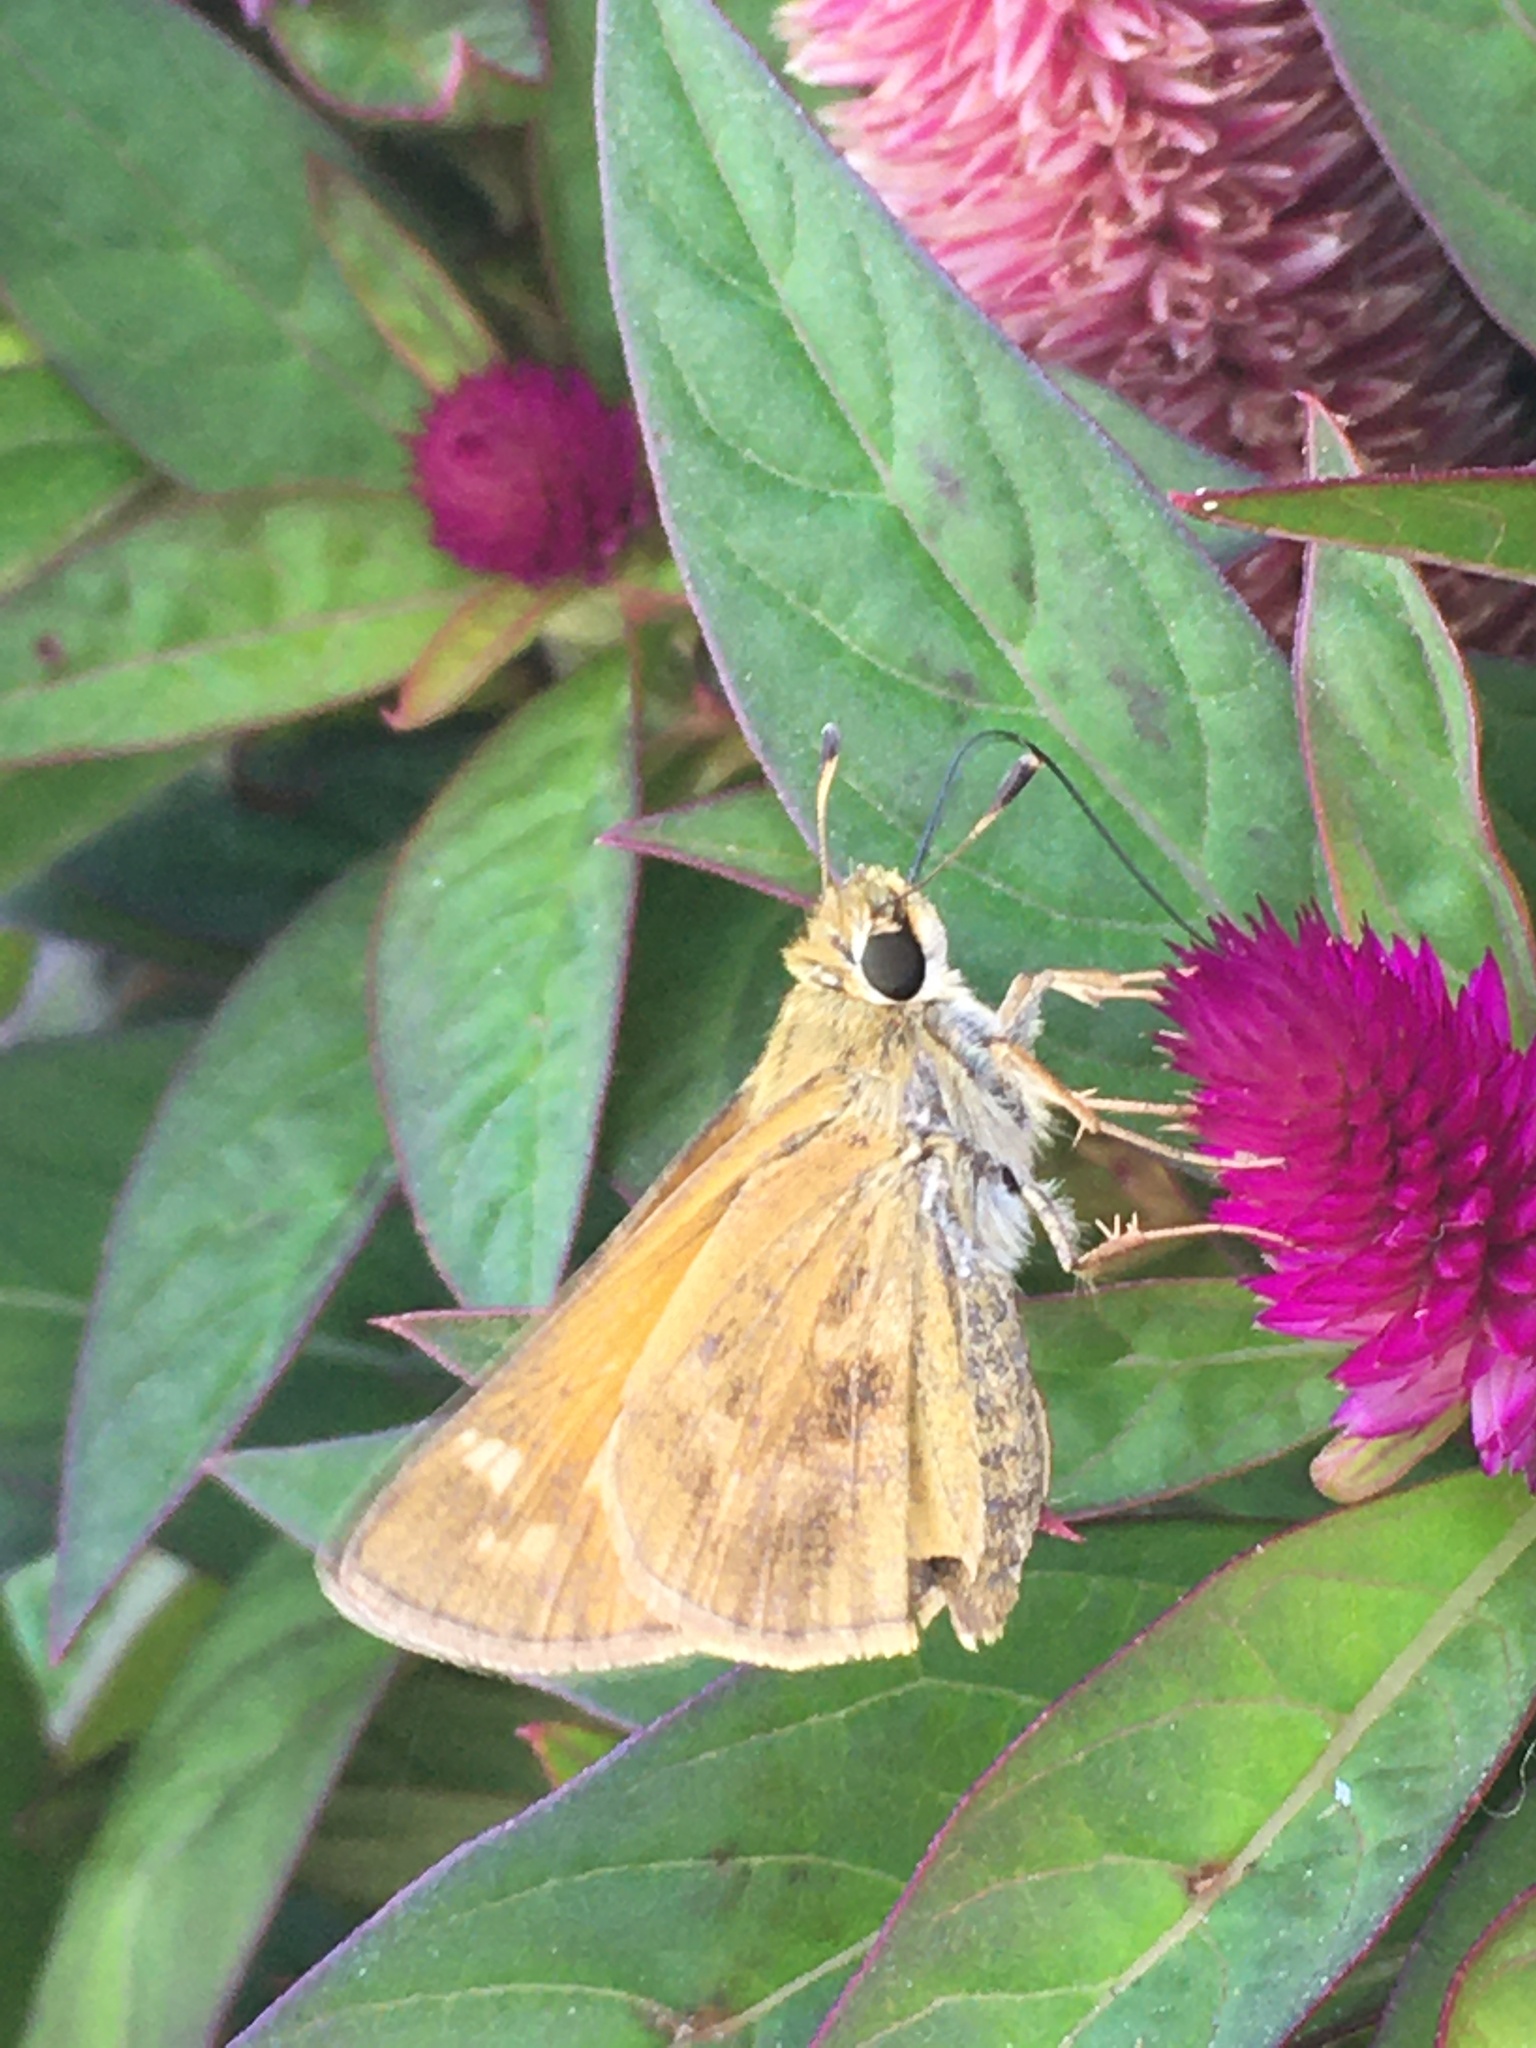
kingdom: Animalia
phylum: Arthropoda
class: Insecta
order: Lepidoptera
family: Hesperiidae
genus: Atalopedes
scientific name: Atalopedes
